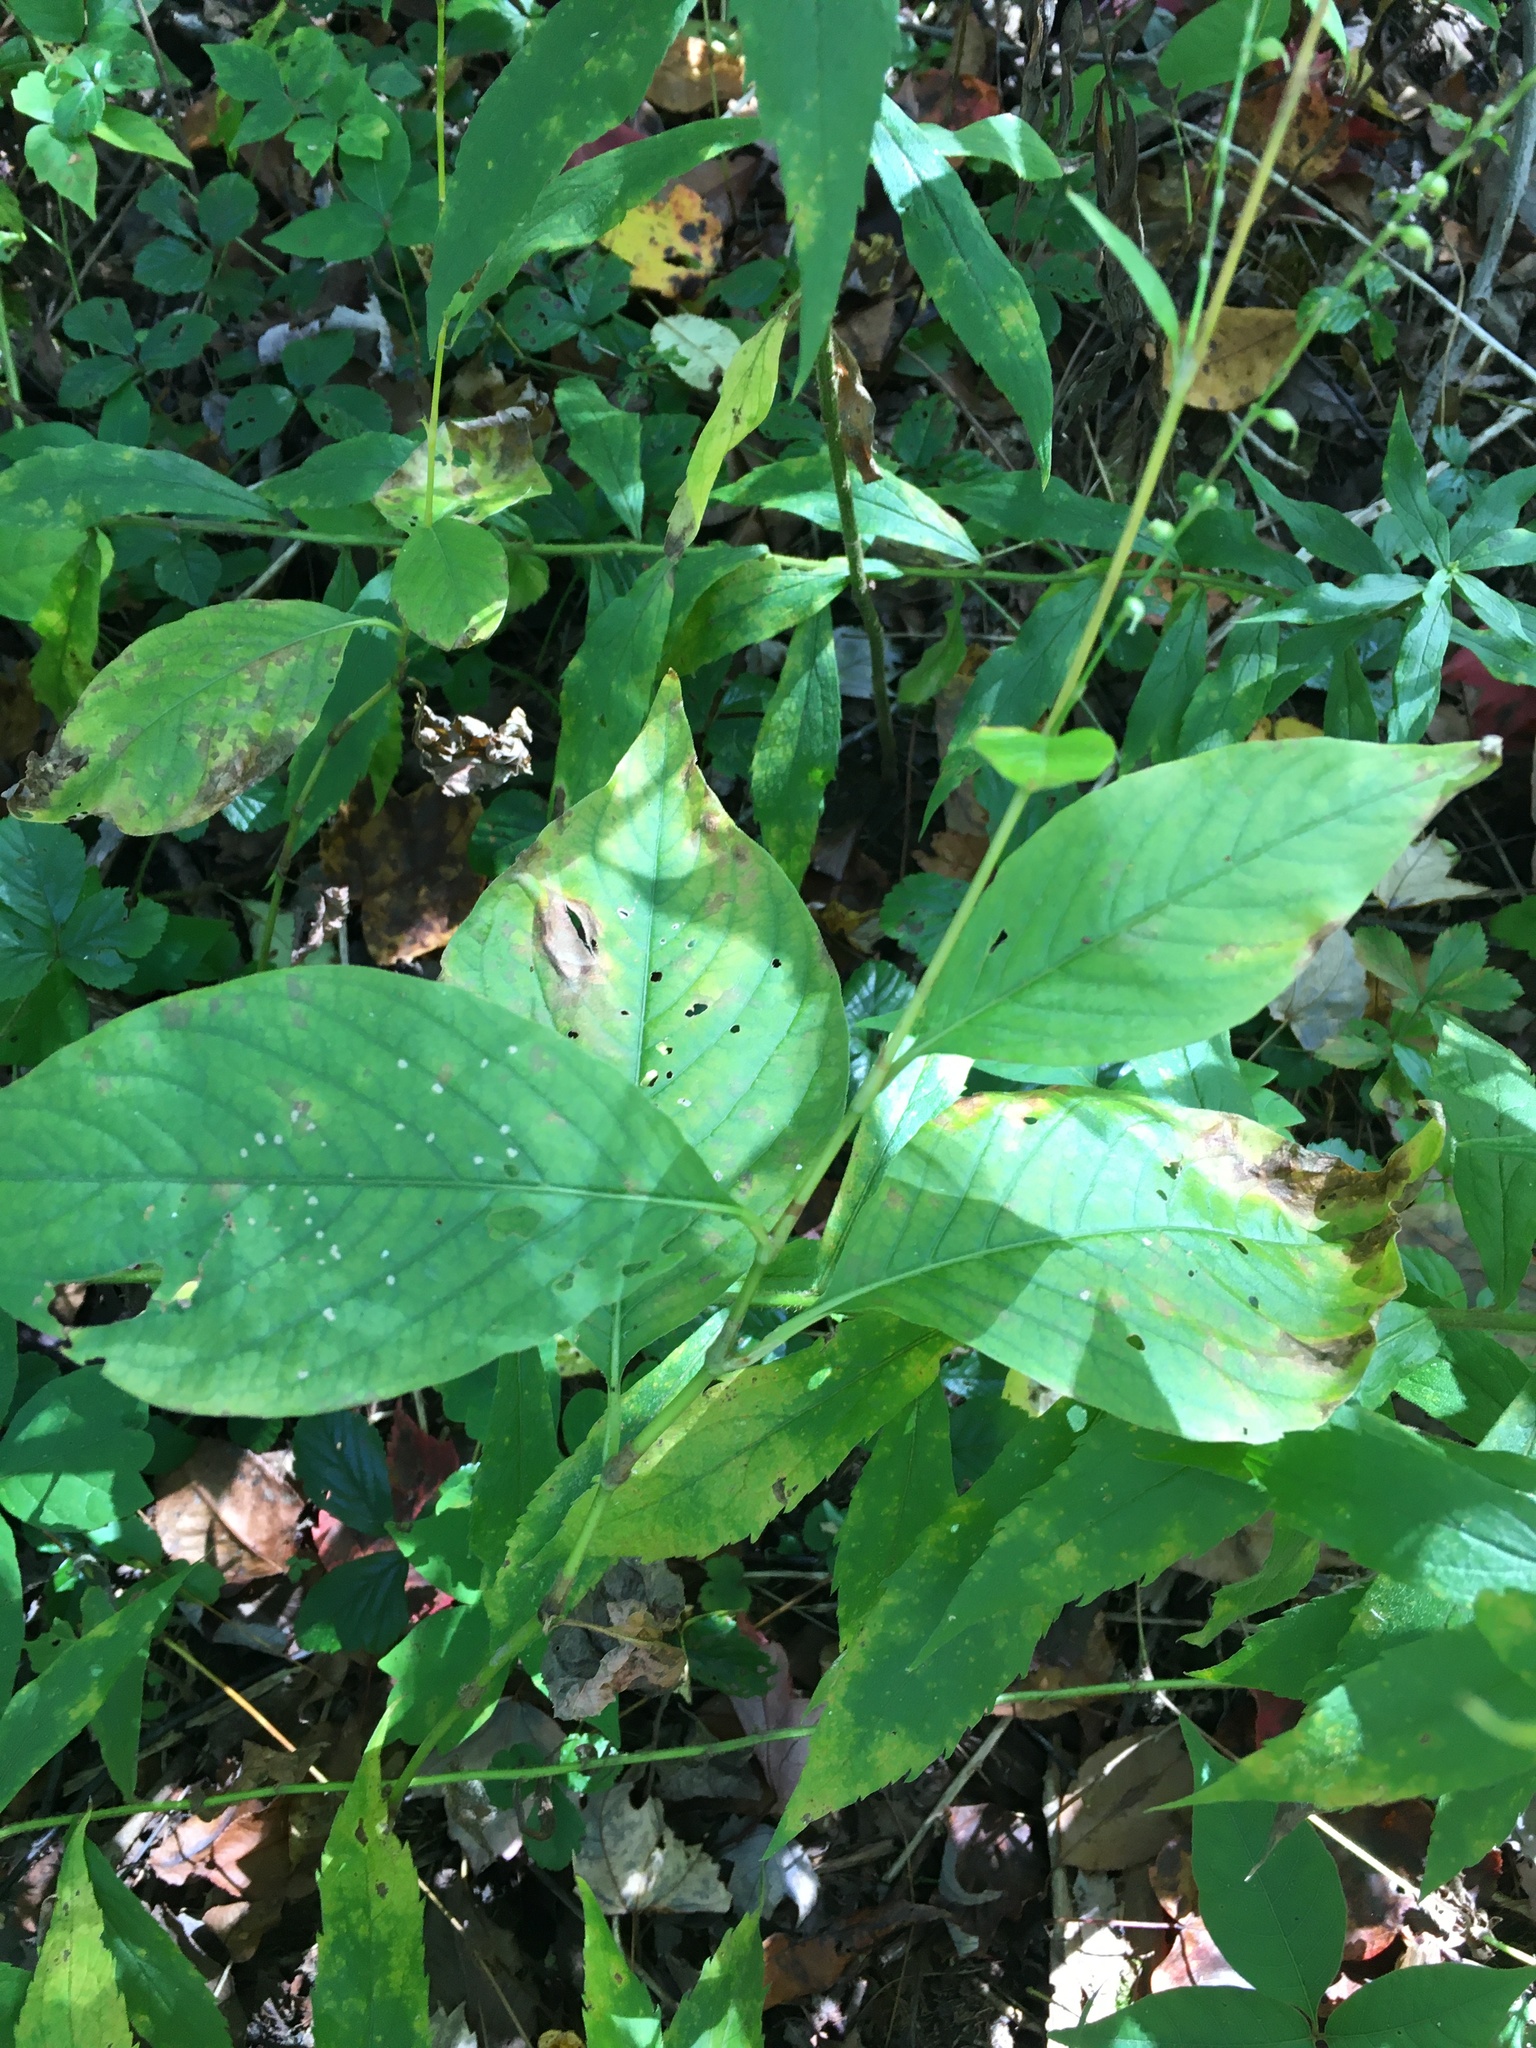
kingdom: Plantae
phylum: Tracheophyta
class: Magnoliopsida
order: Caryophyllales
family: Polygonaceae
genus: Persicaria
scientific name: Persicaria virginiana
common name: Jumpseed
